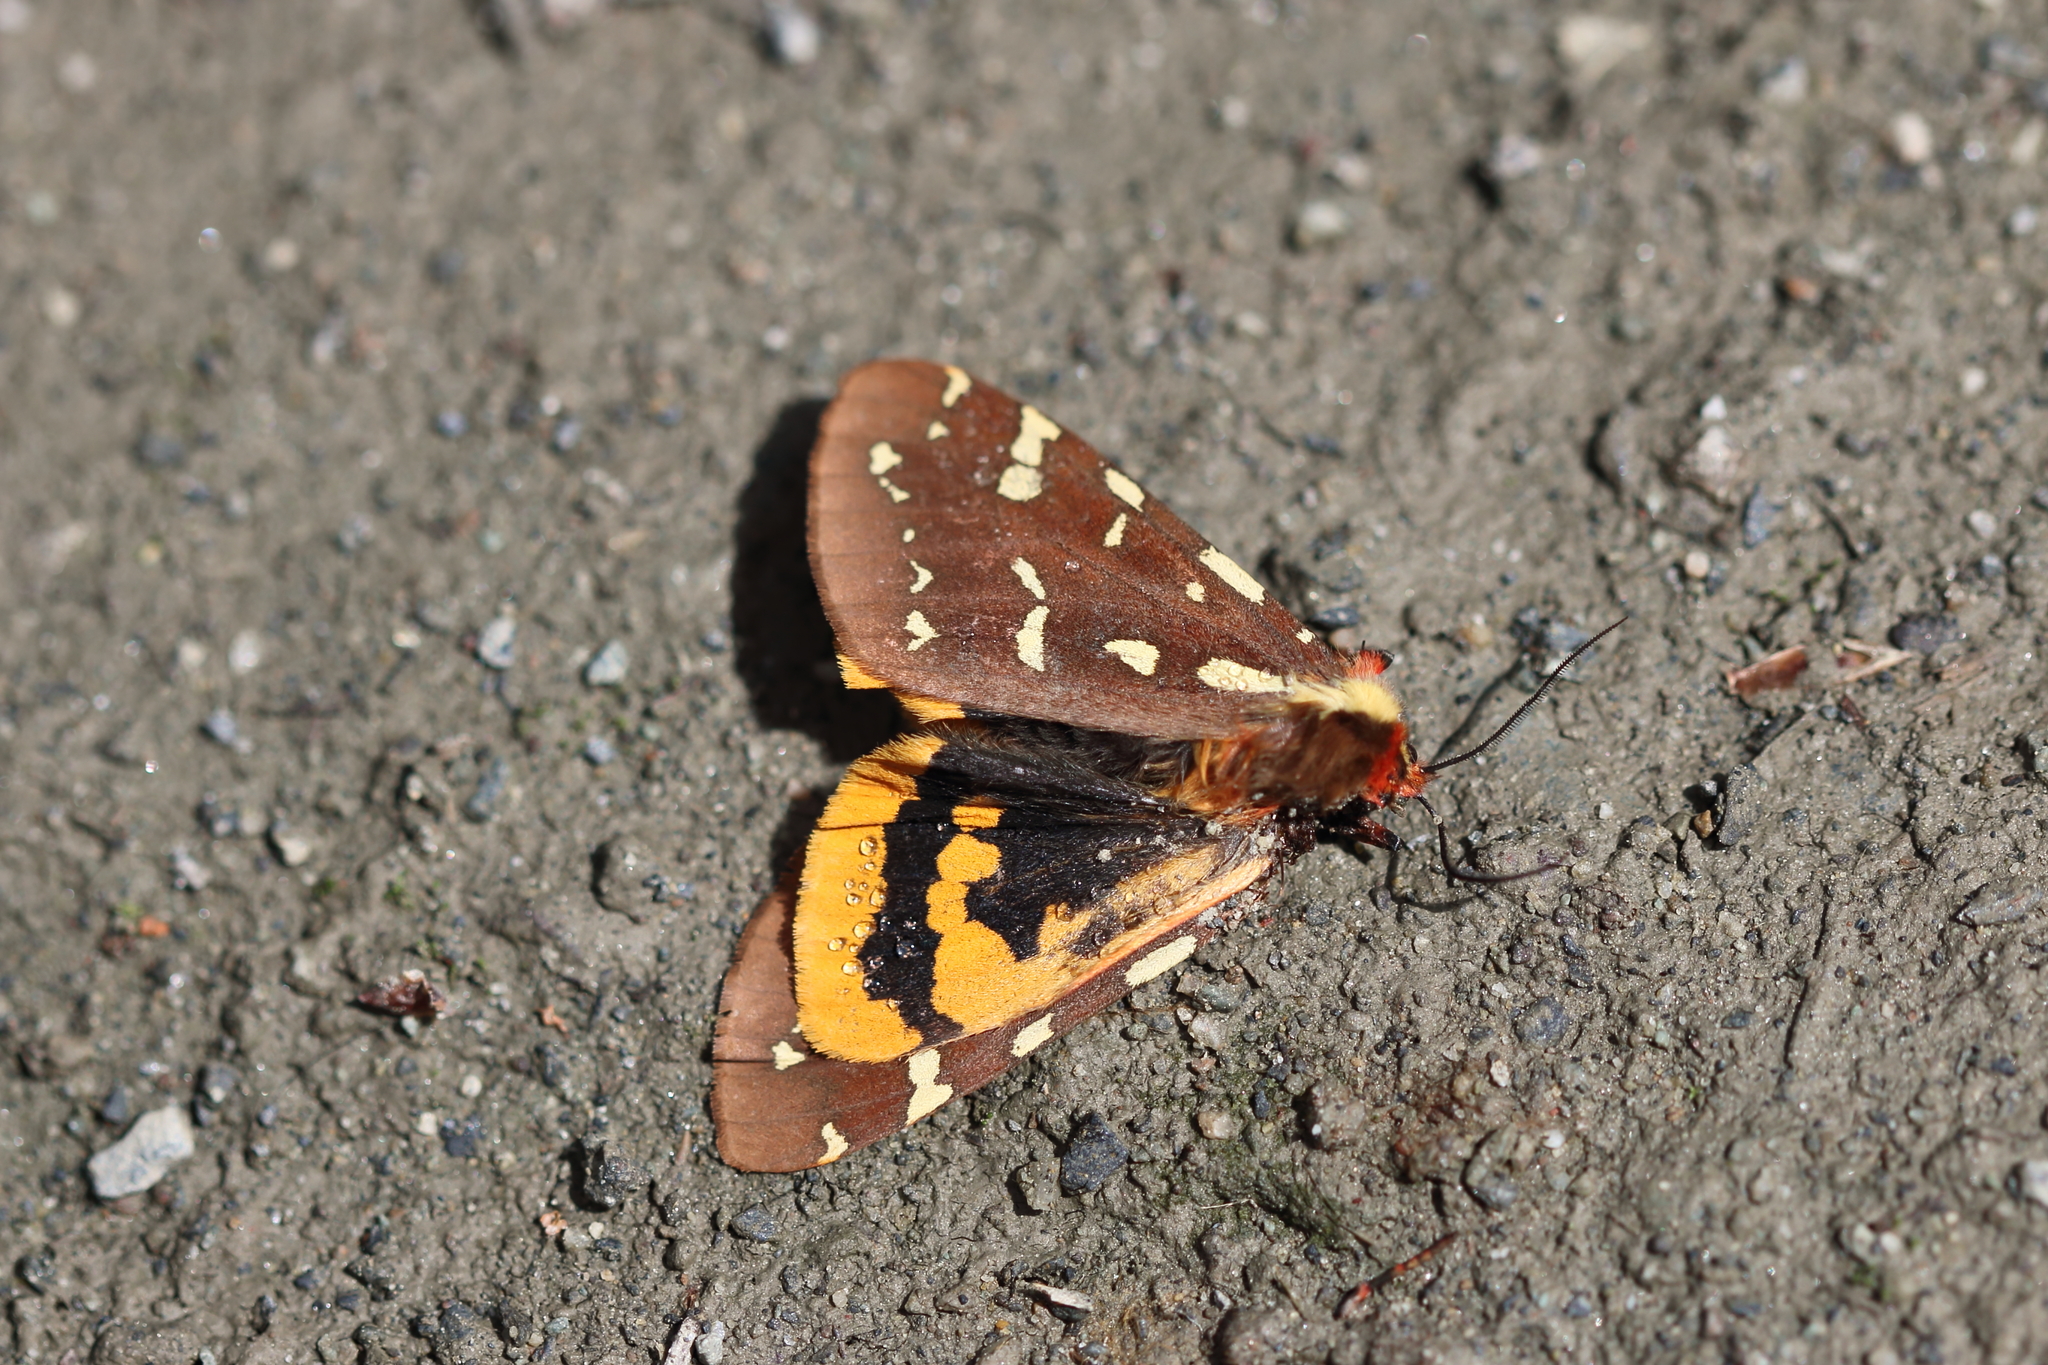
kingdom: Animalia
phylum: Arthropoda
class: Insecta
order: Lepidoptera
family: Erebidae
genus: Arctia
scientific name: Arctia parthenos
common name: St. lawrence tiger moth
